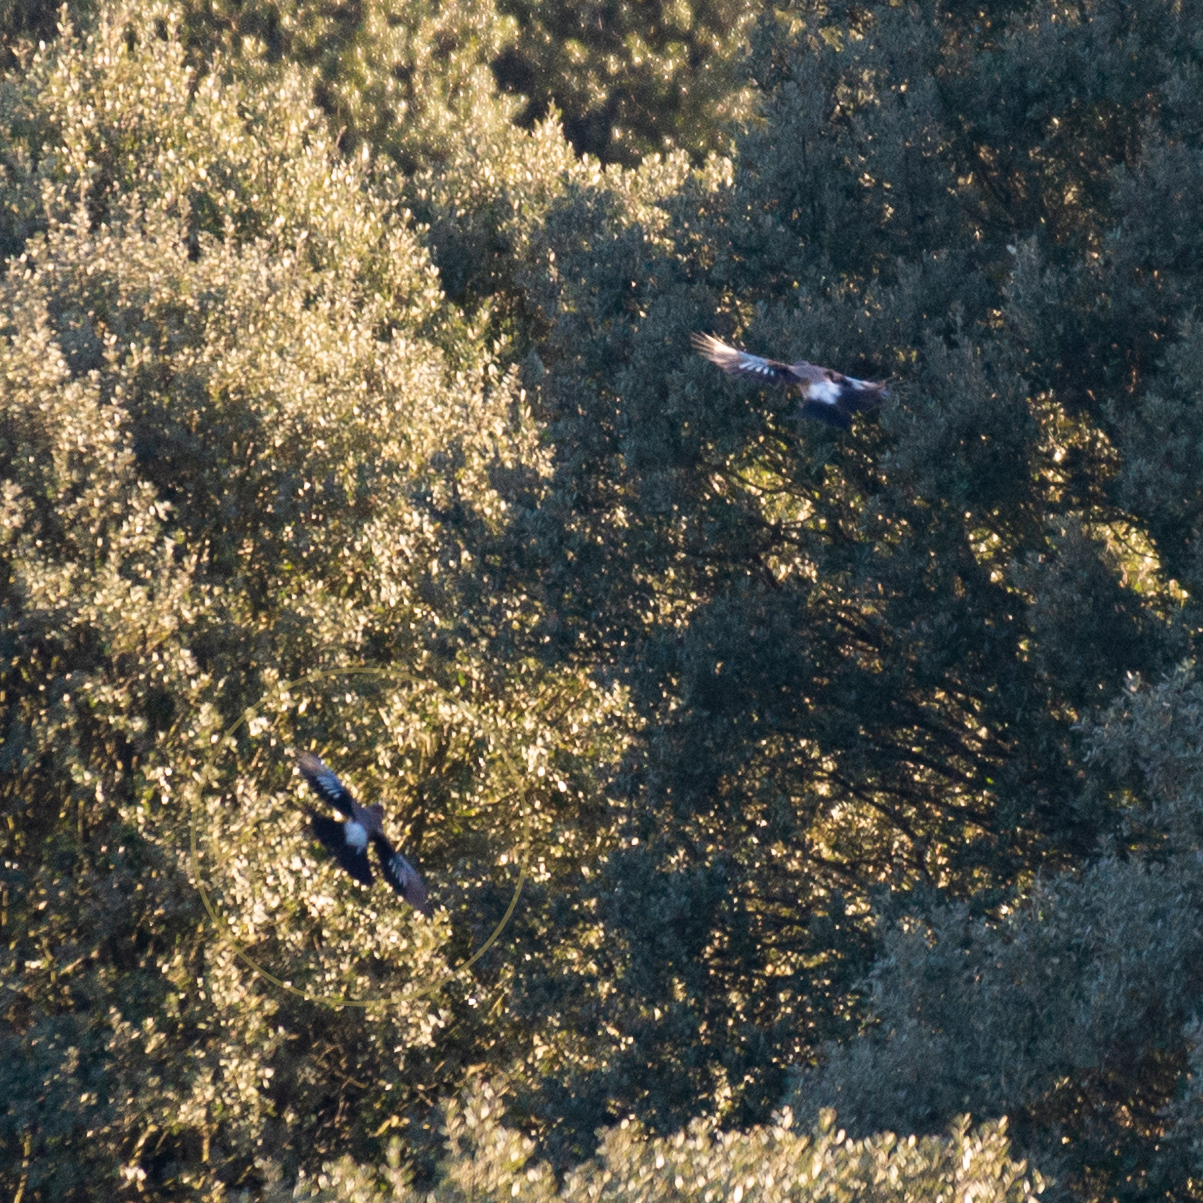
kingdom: Animalia
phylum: Chordata
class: Aves
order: Passeriformes
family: Corvidae
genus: Garrulus
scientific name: Garrulus glandarius
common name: Eurasian jay
